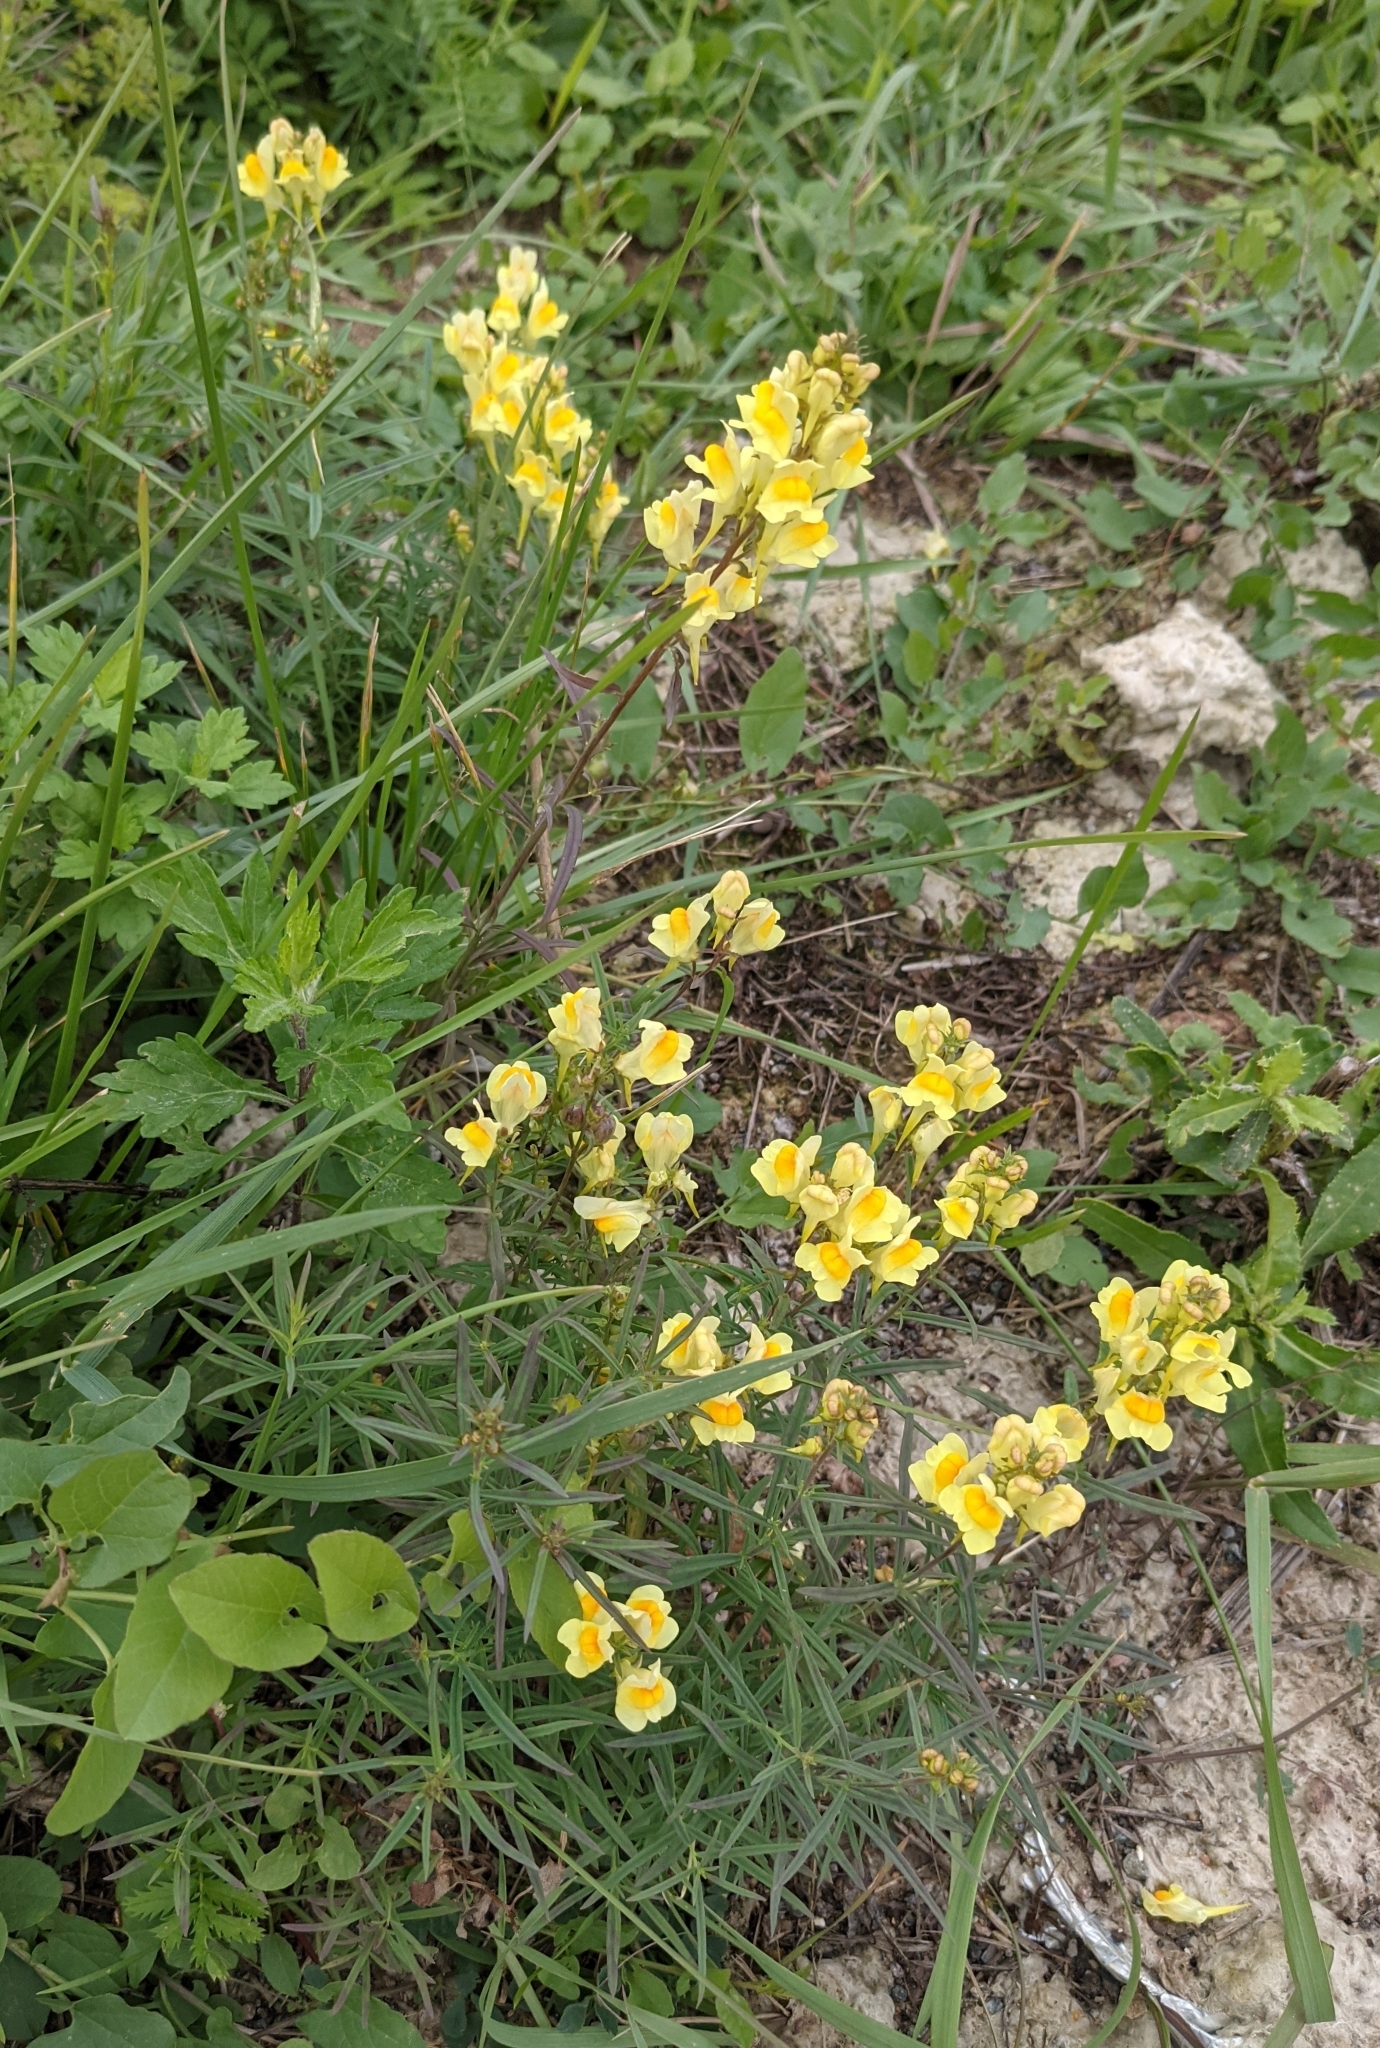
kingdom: Plantae
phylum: Tracheophyta
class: Magnoliopsida
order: Lamiales
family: Plantaginaceae
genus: Linaria
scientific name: Linaria vulgaris
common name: Butter and eggs
